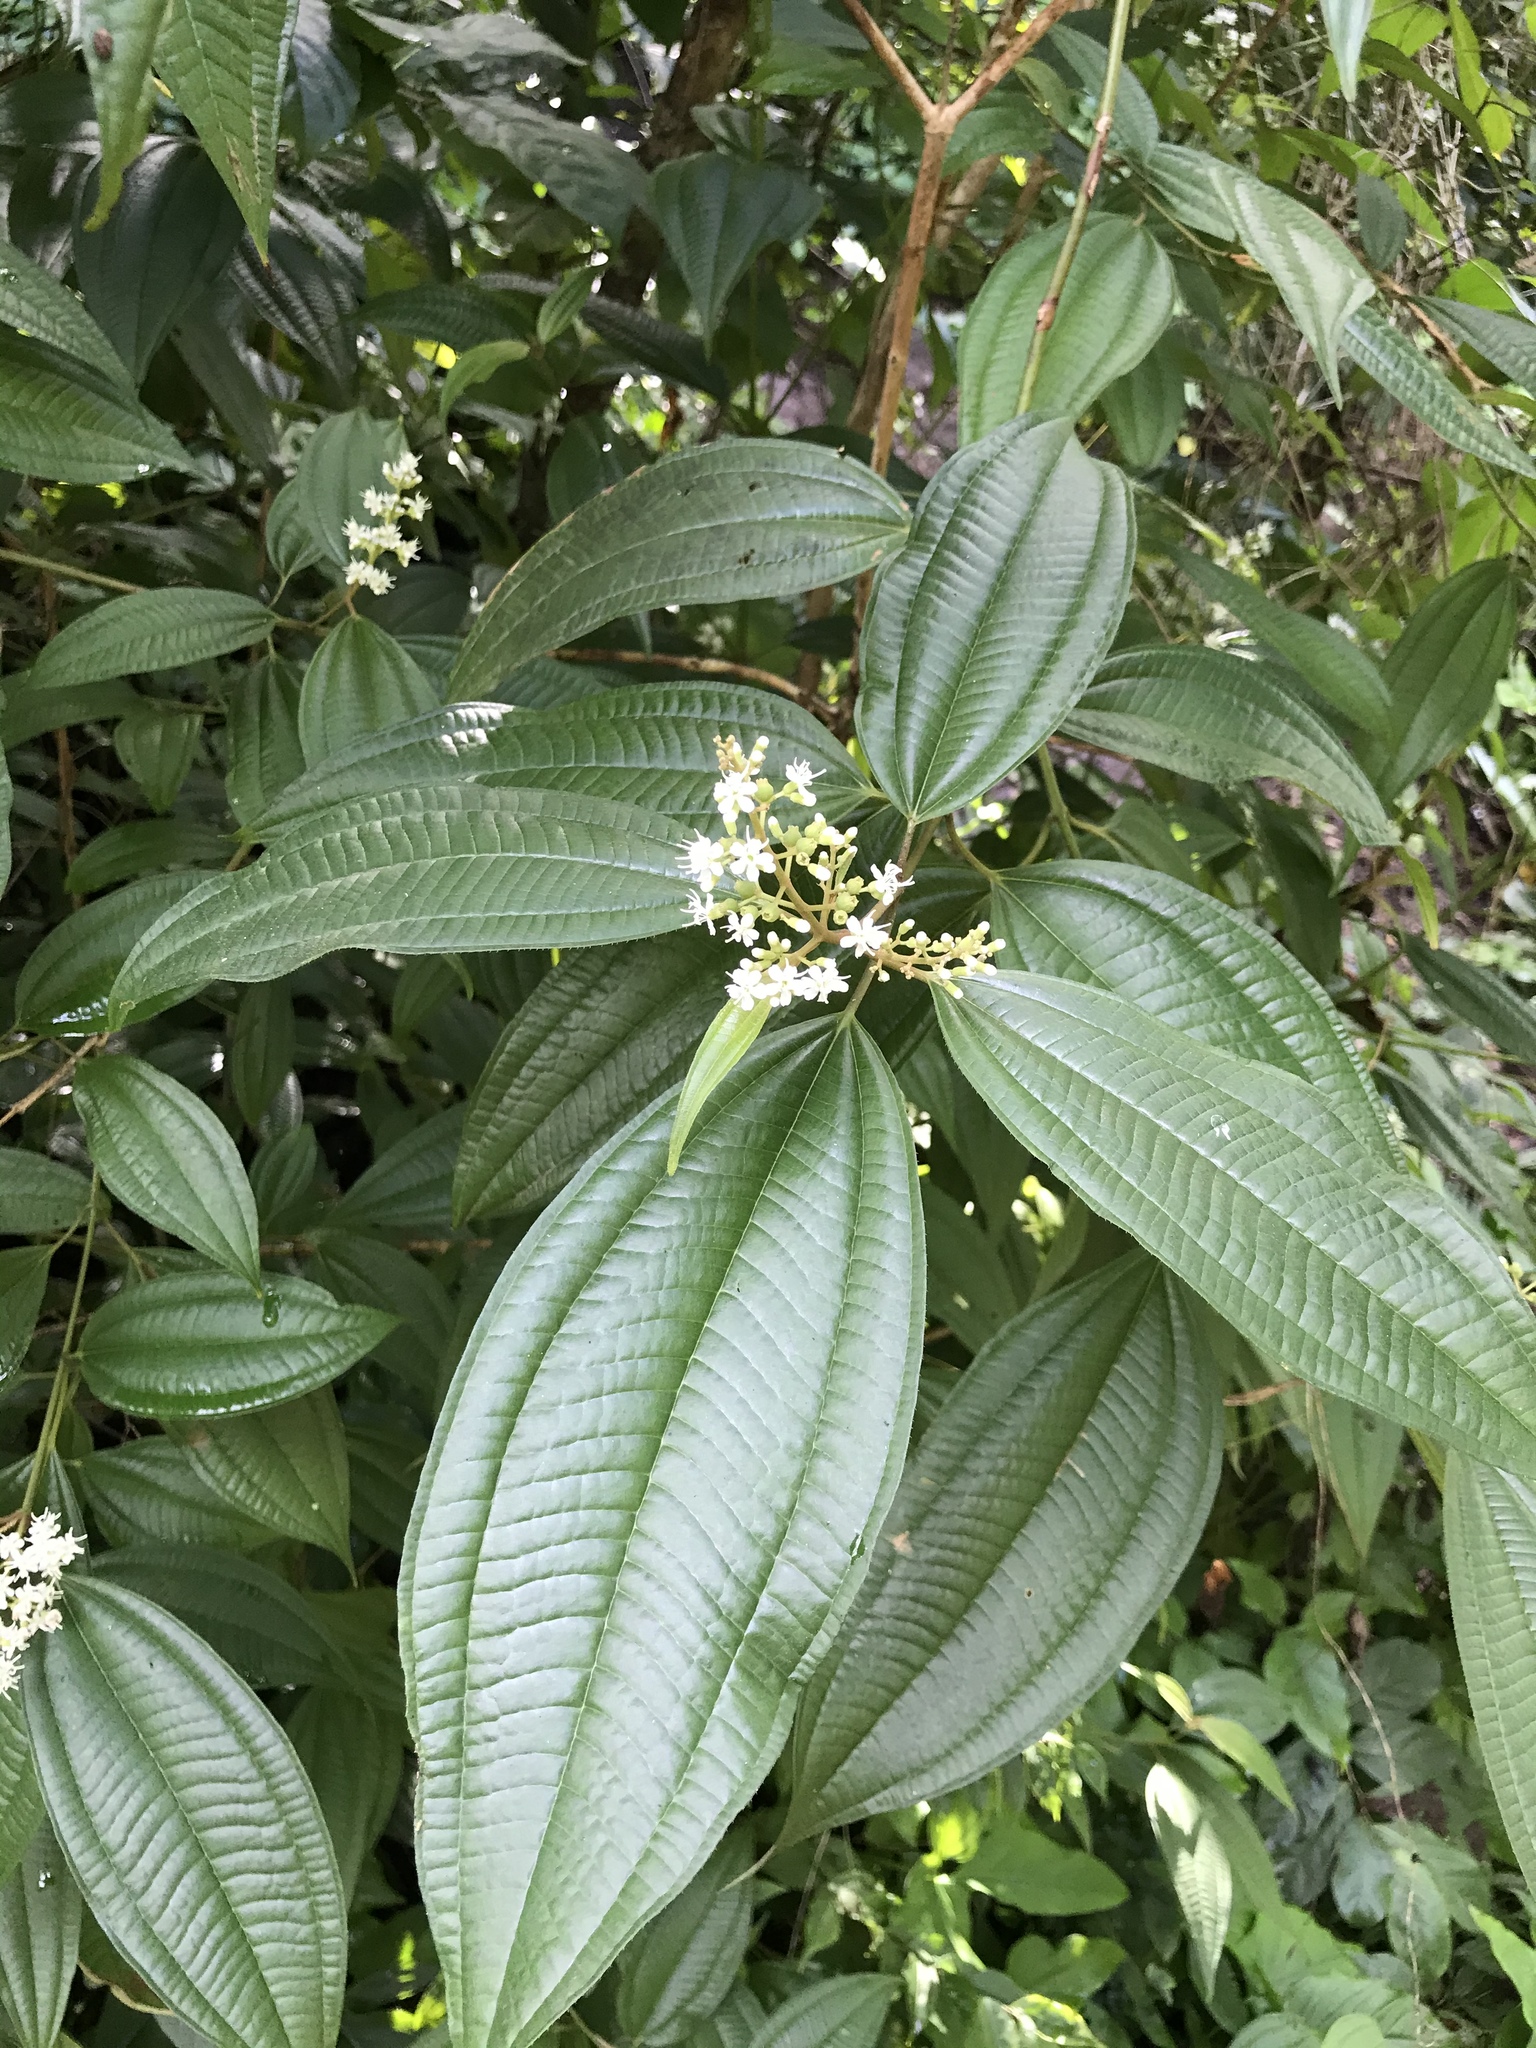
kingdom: Plantae
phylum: Tracheophyta
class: Magnoliopsida
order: Myrtales
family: Melastomataceae
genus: Miconia
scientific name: Miconia laevigata
